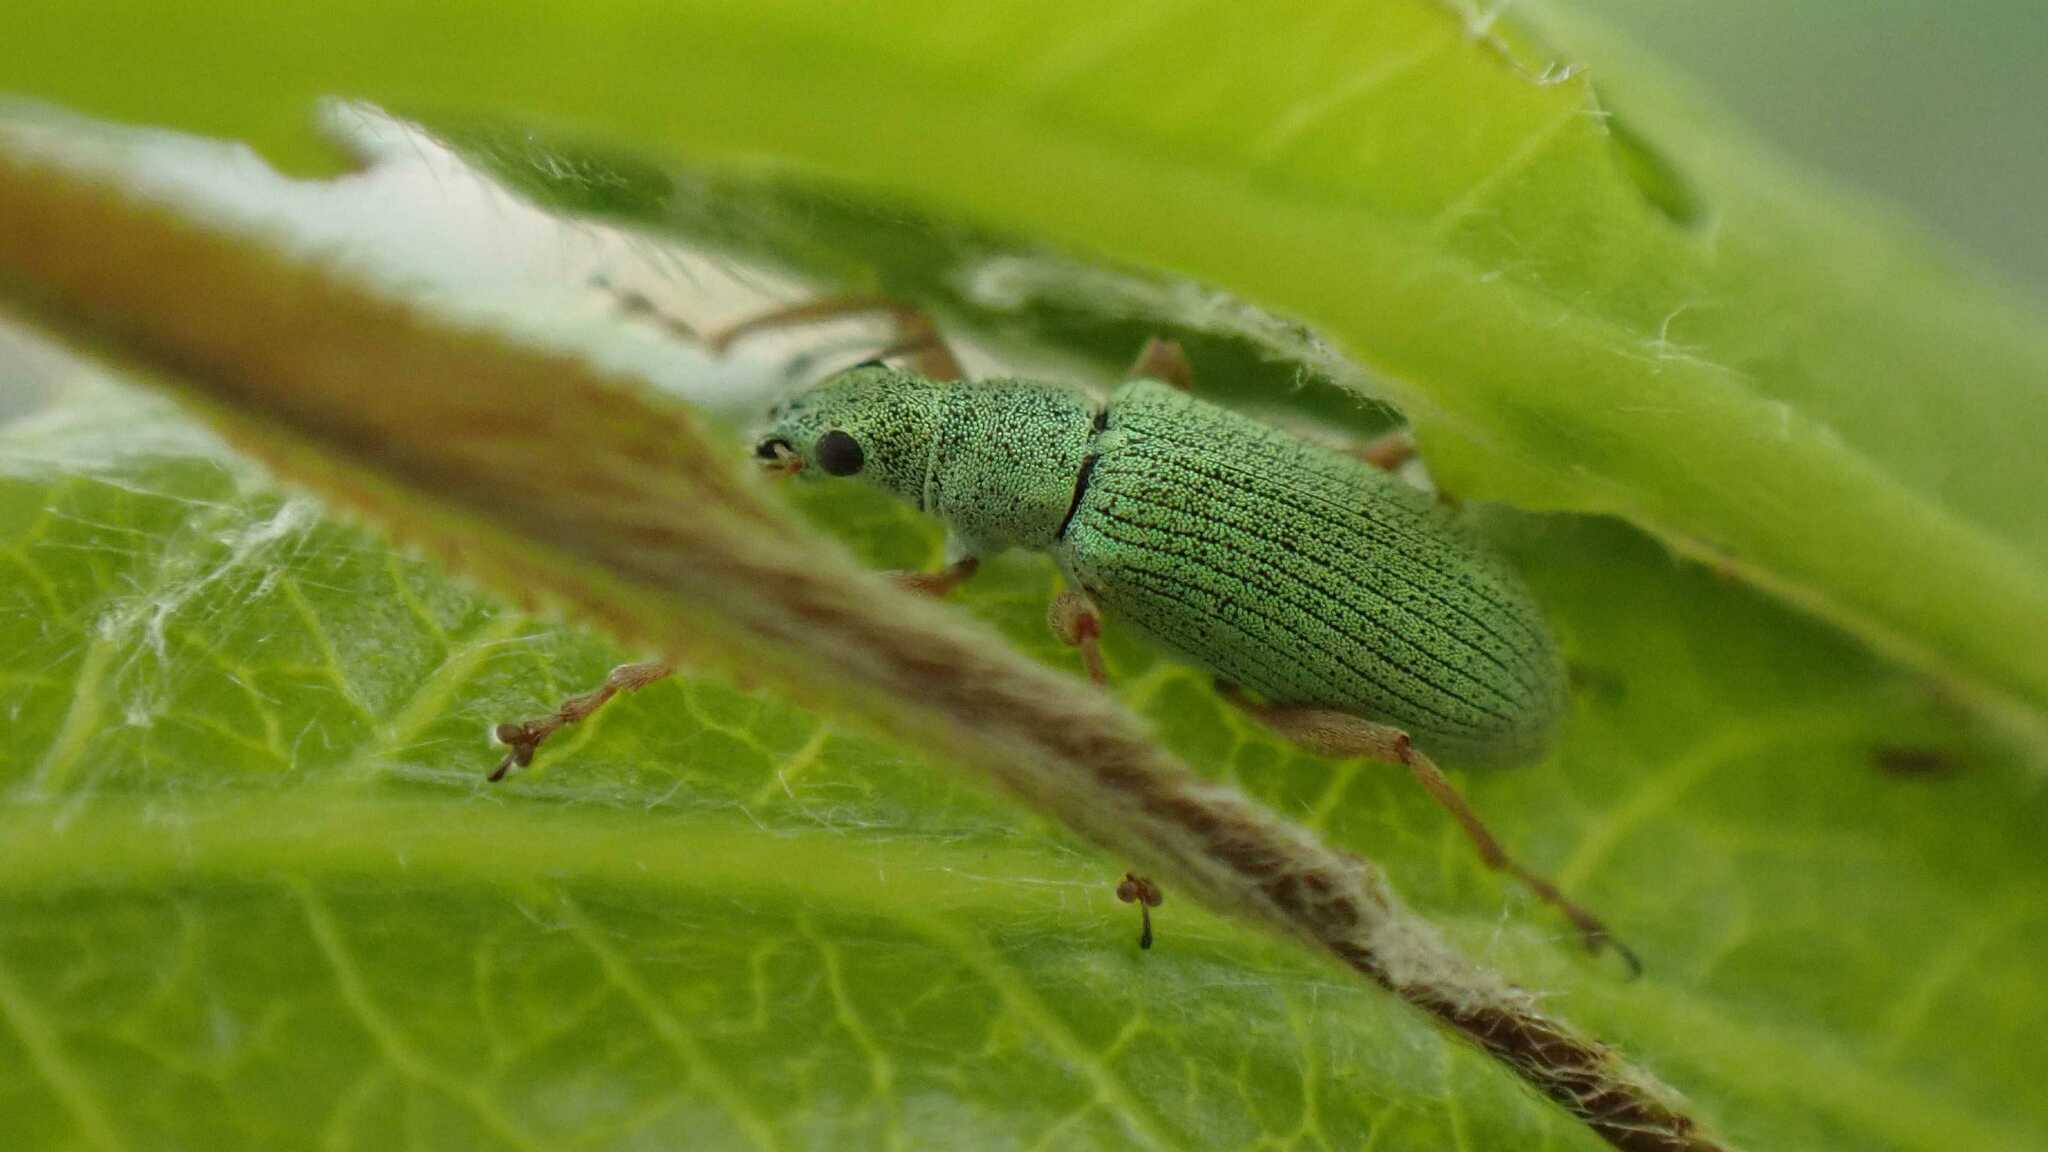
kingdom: Animalia
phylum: Arthropoda
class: Insecta
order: Coleoptera
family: Curculionidae
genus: Polydrusus
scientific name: Polydrusus impressifrons
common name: Weevil
